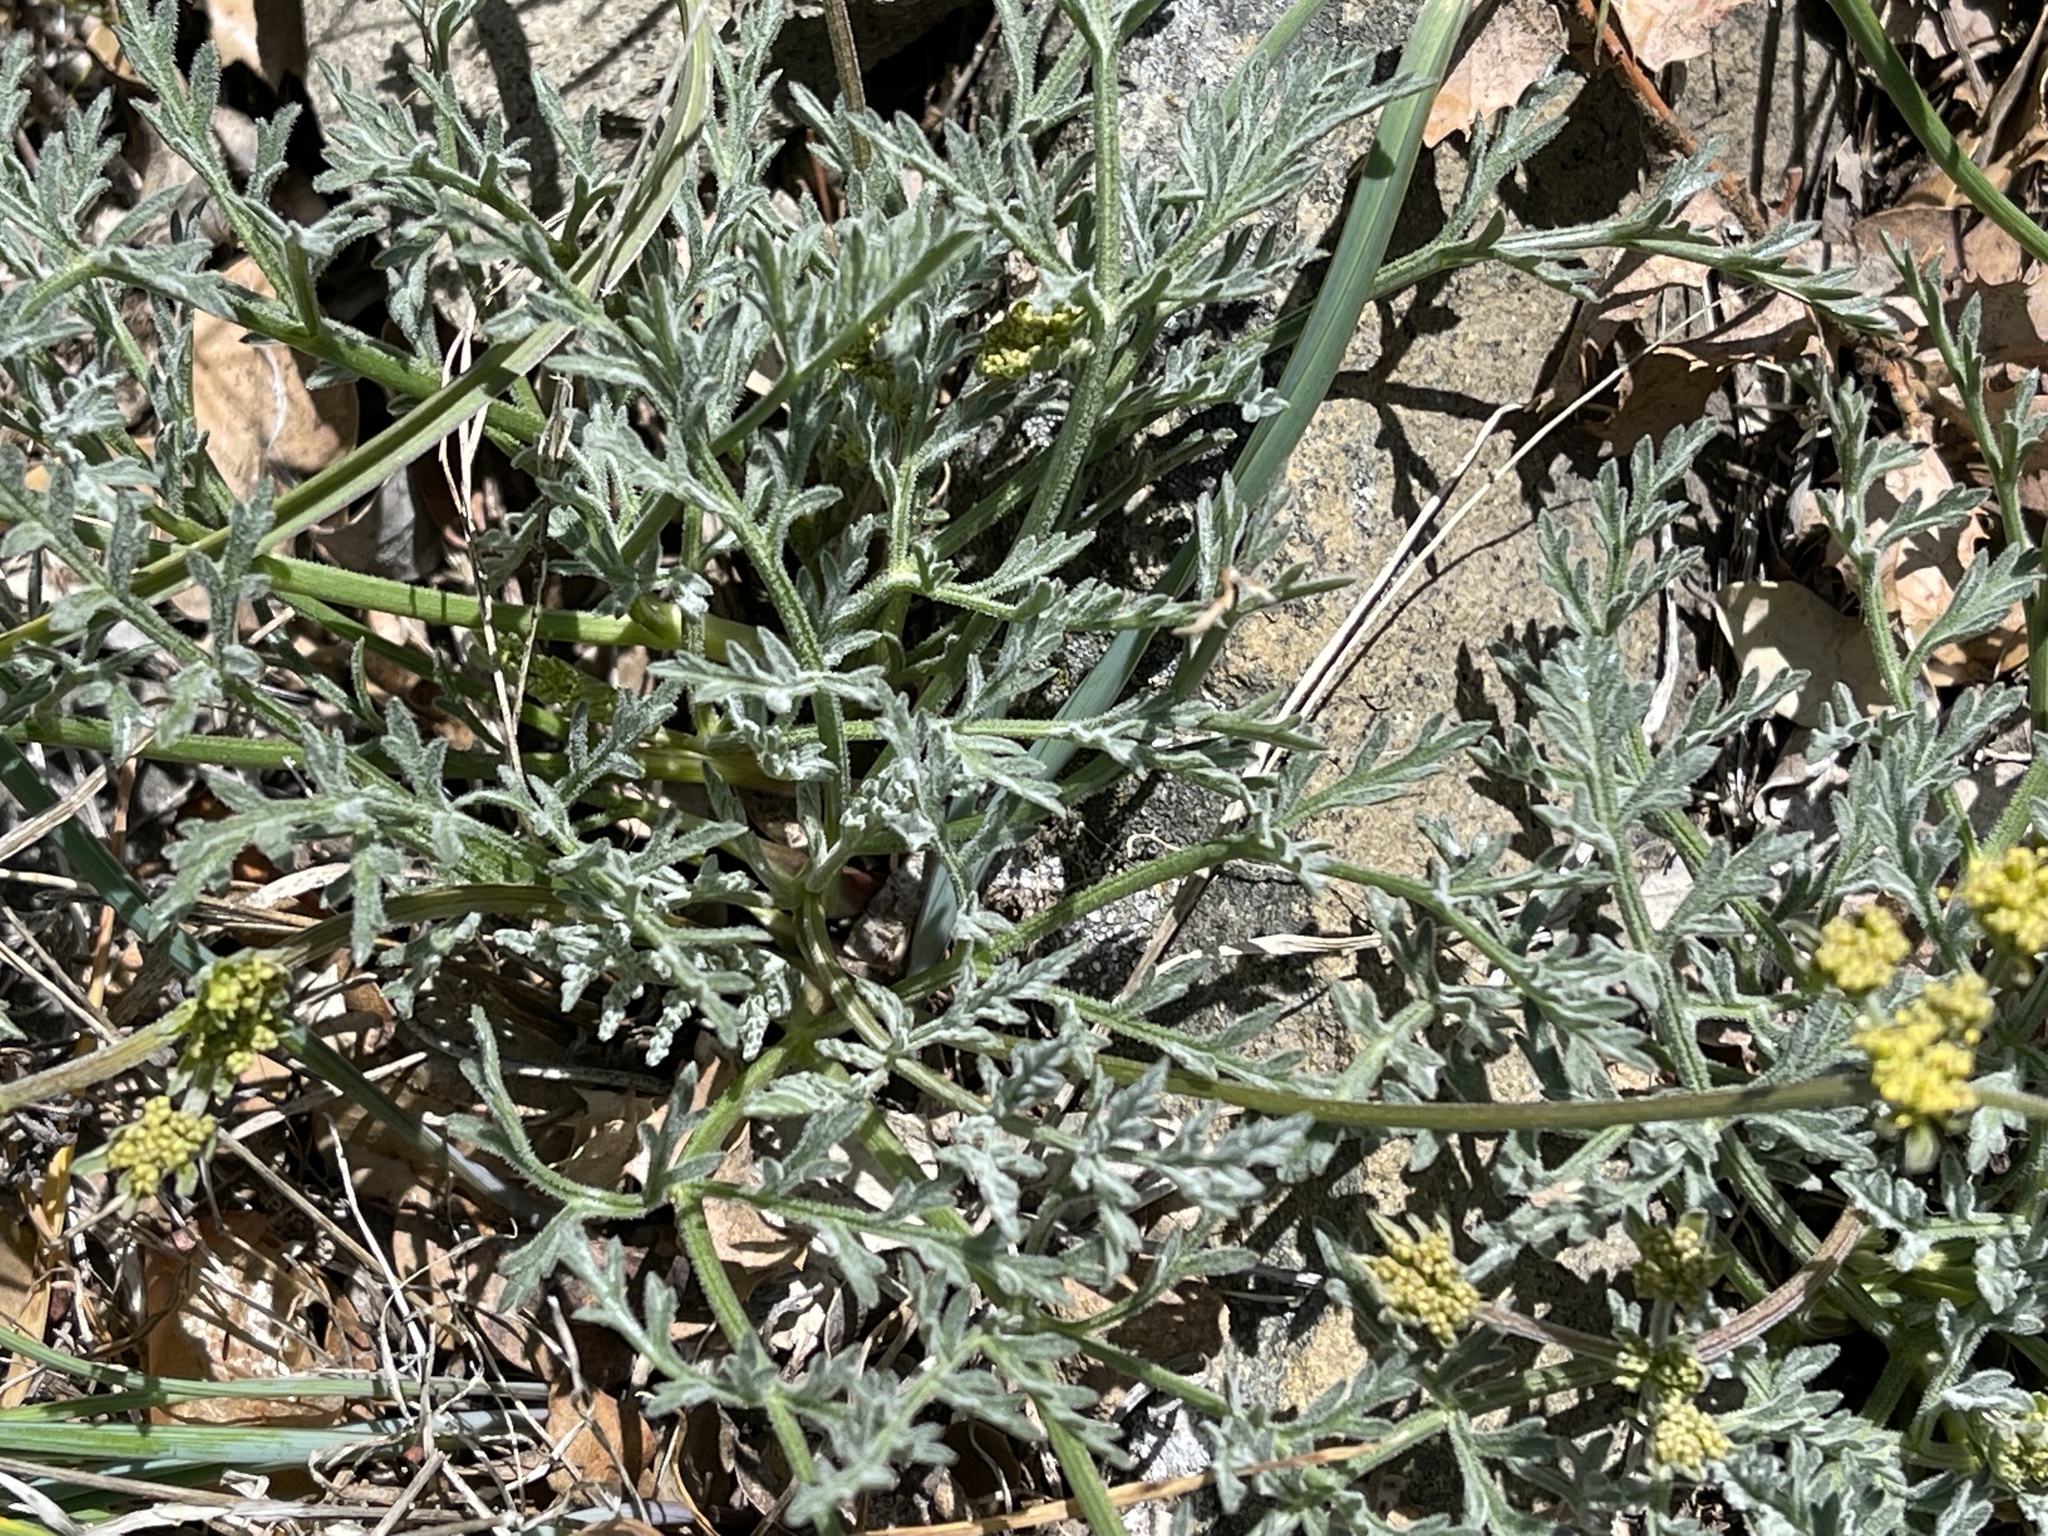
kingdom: Plantae
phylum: Tracheophyta
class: Magnoliopsida
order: Apiales
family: Apiaceae
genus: Lomatium
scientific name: Lomatium observatorium
